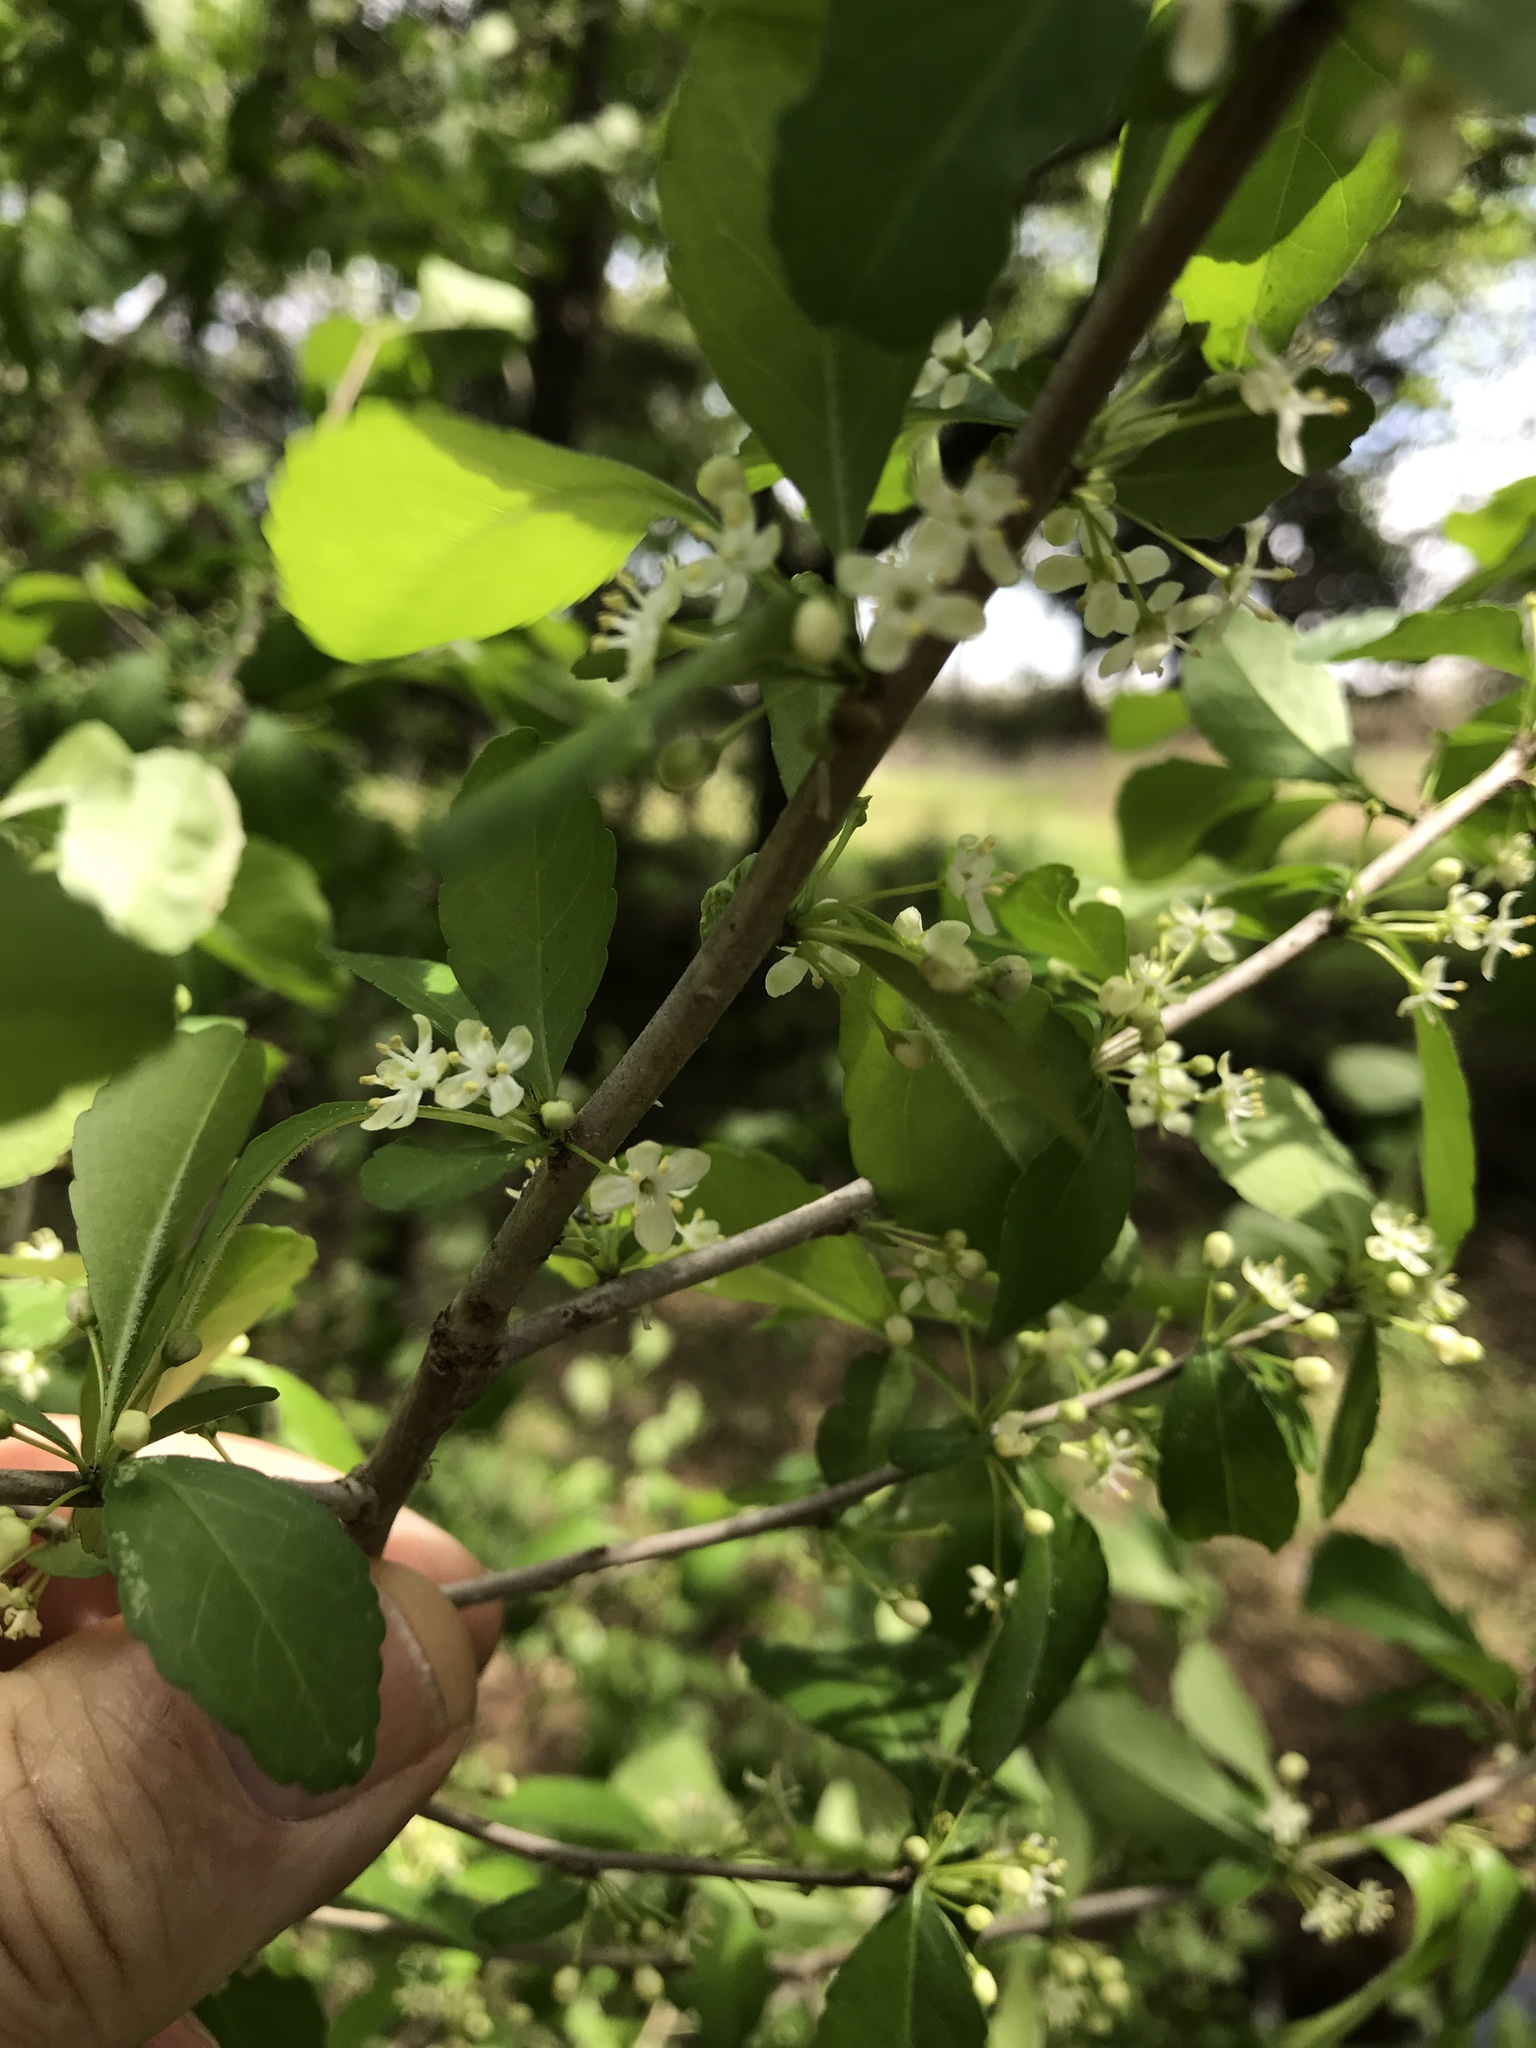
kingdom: Plantae
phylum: Tracheophyta
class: Magnoliopsida
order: Aquifoliales
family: Aquifoliaceae
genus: Ilex
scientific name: Ilex decidua
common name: Possum-haw
